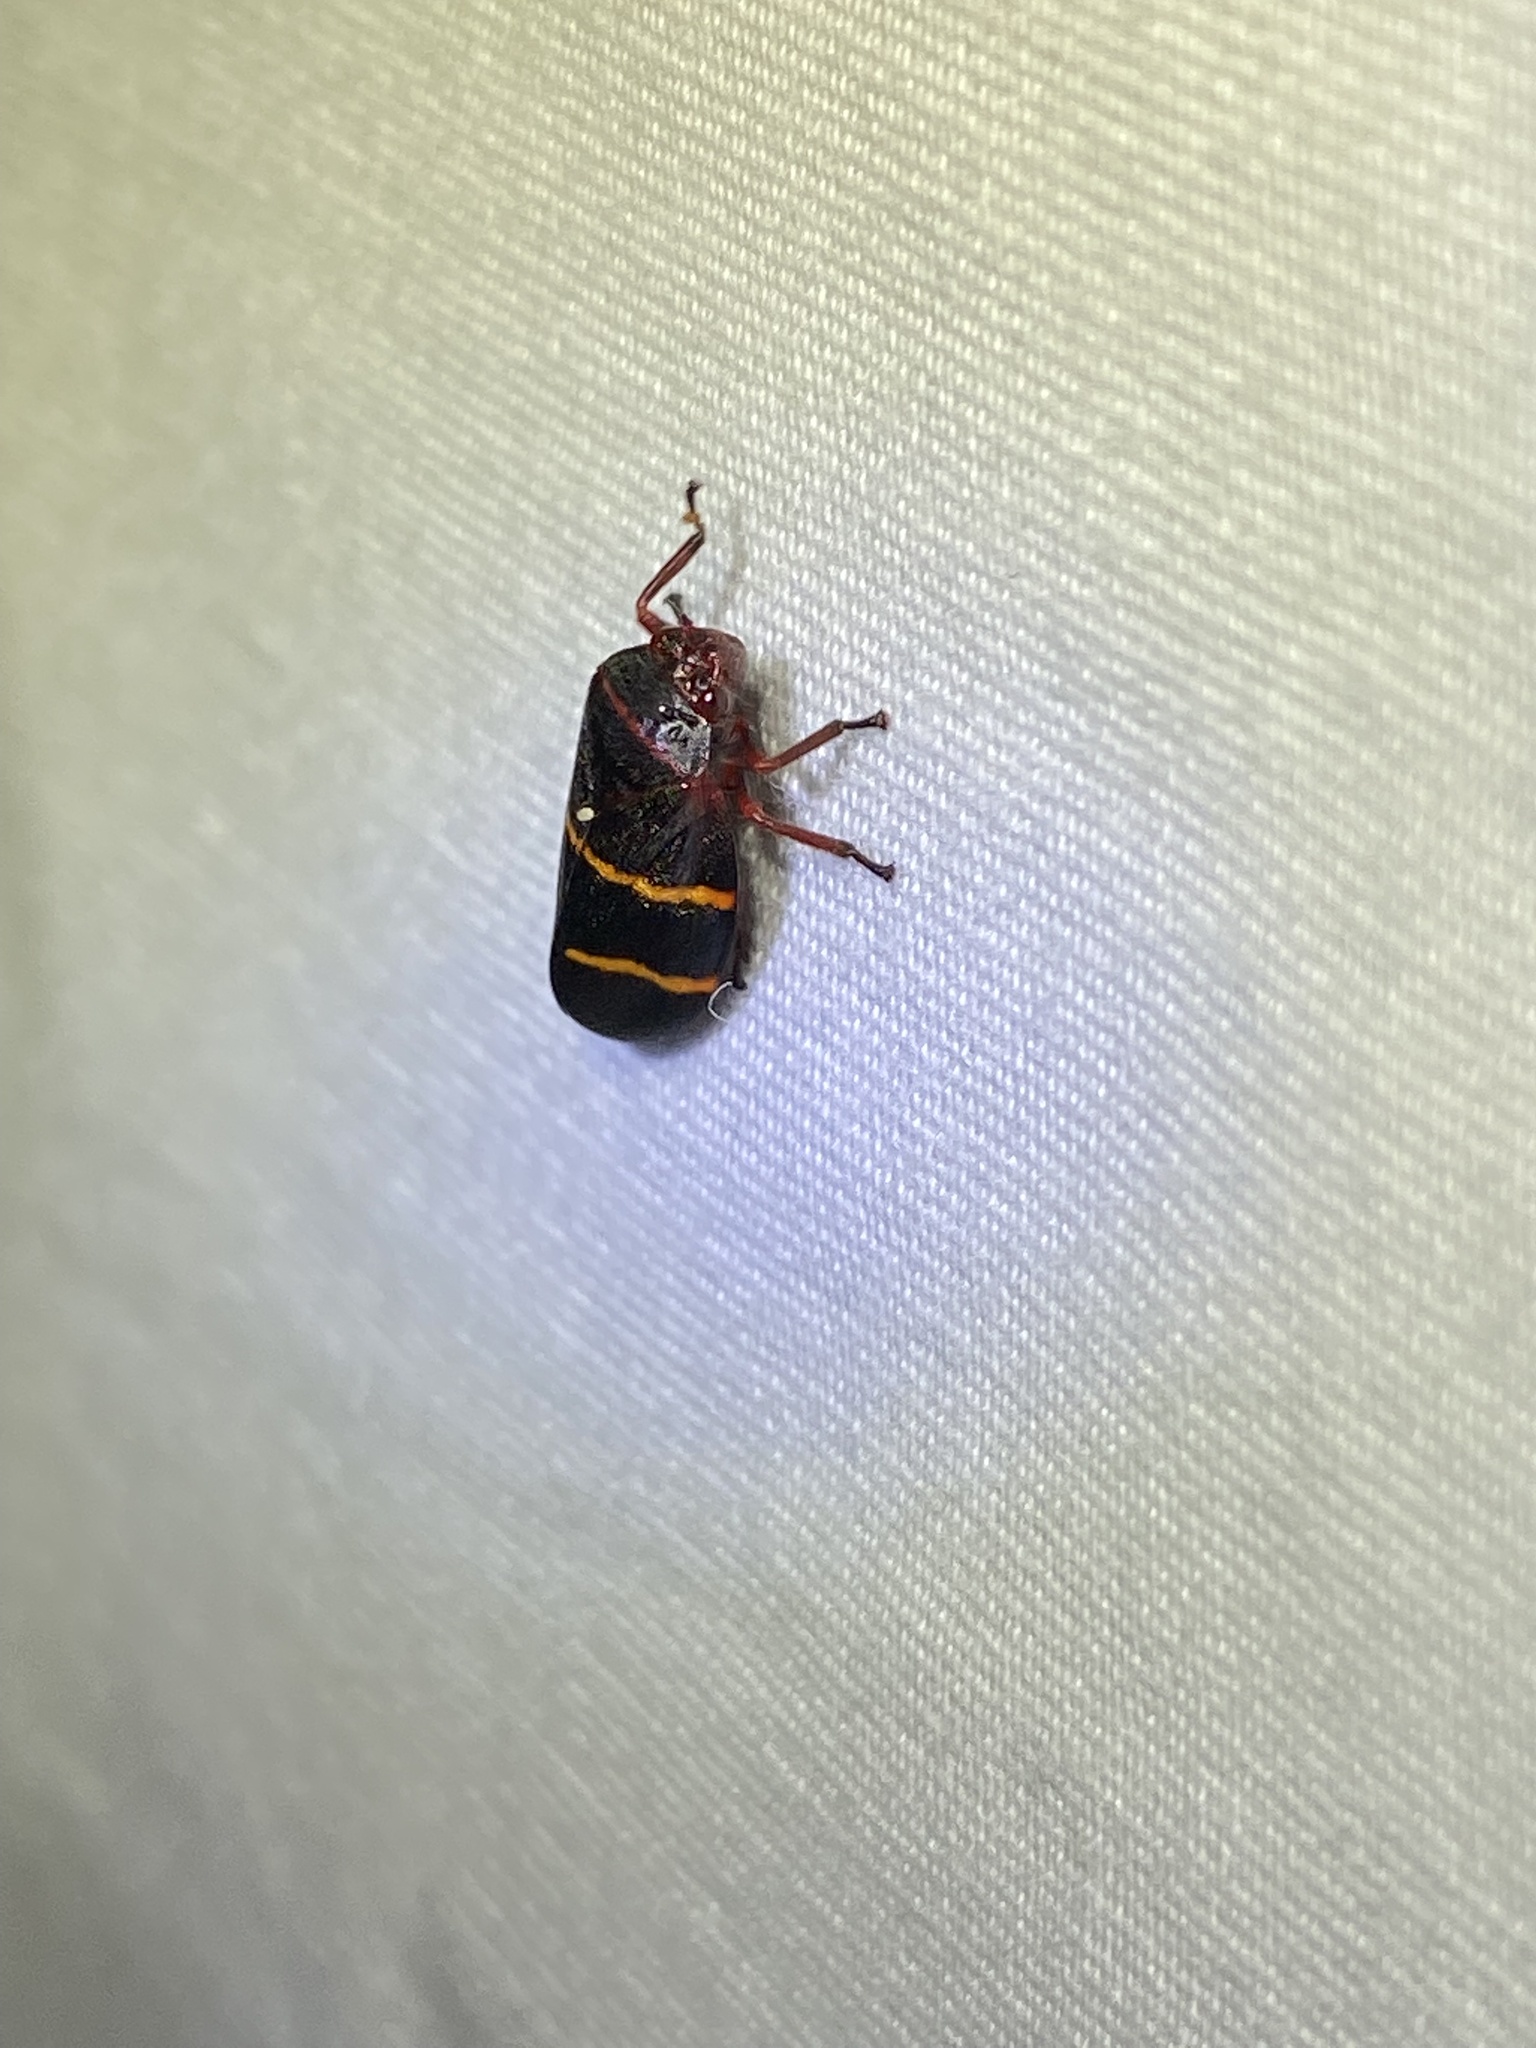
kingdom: Animalia
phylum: Arthropoda
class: Insecta
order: Hemiptera
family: Cercopidae
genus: Prosapia
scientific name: Prosapia bicincta
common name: Twolined spittlebug
